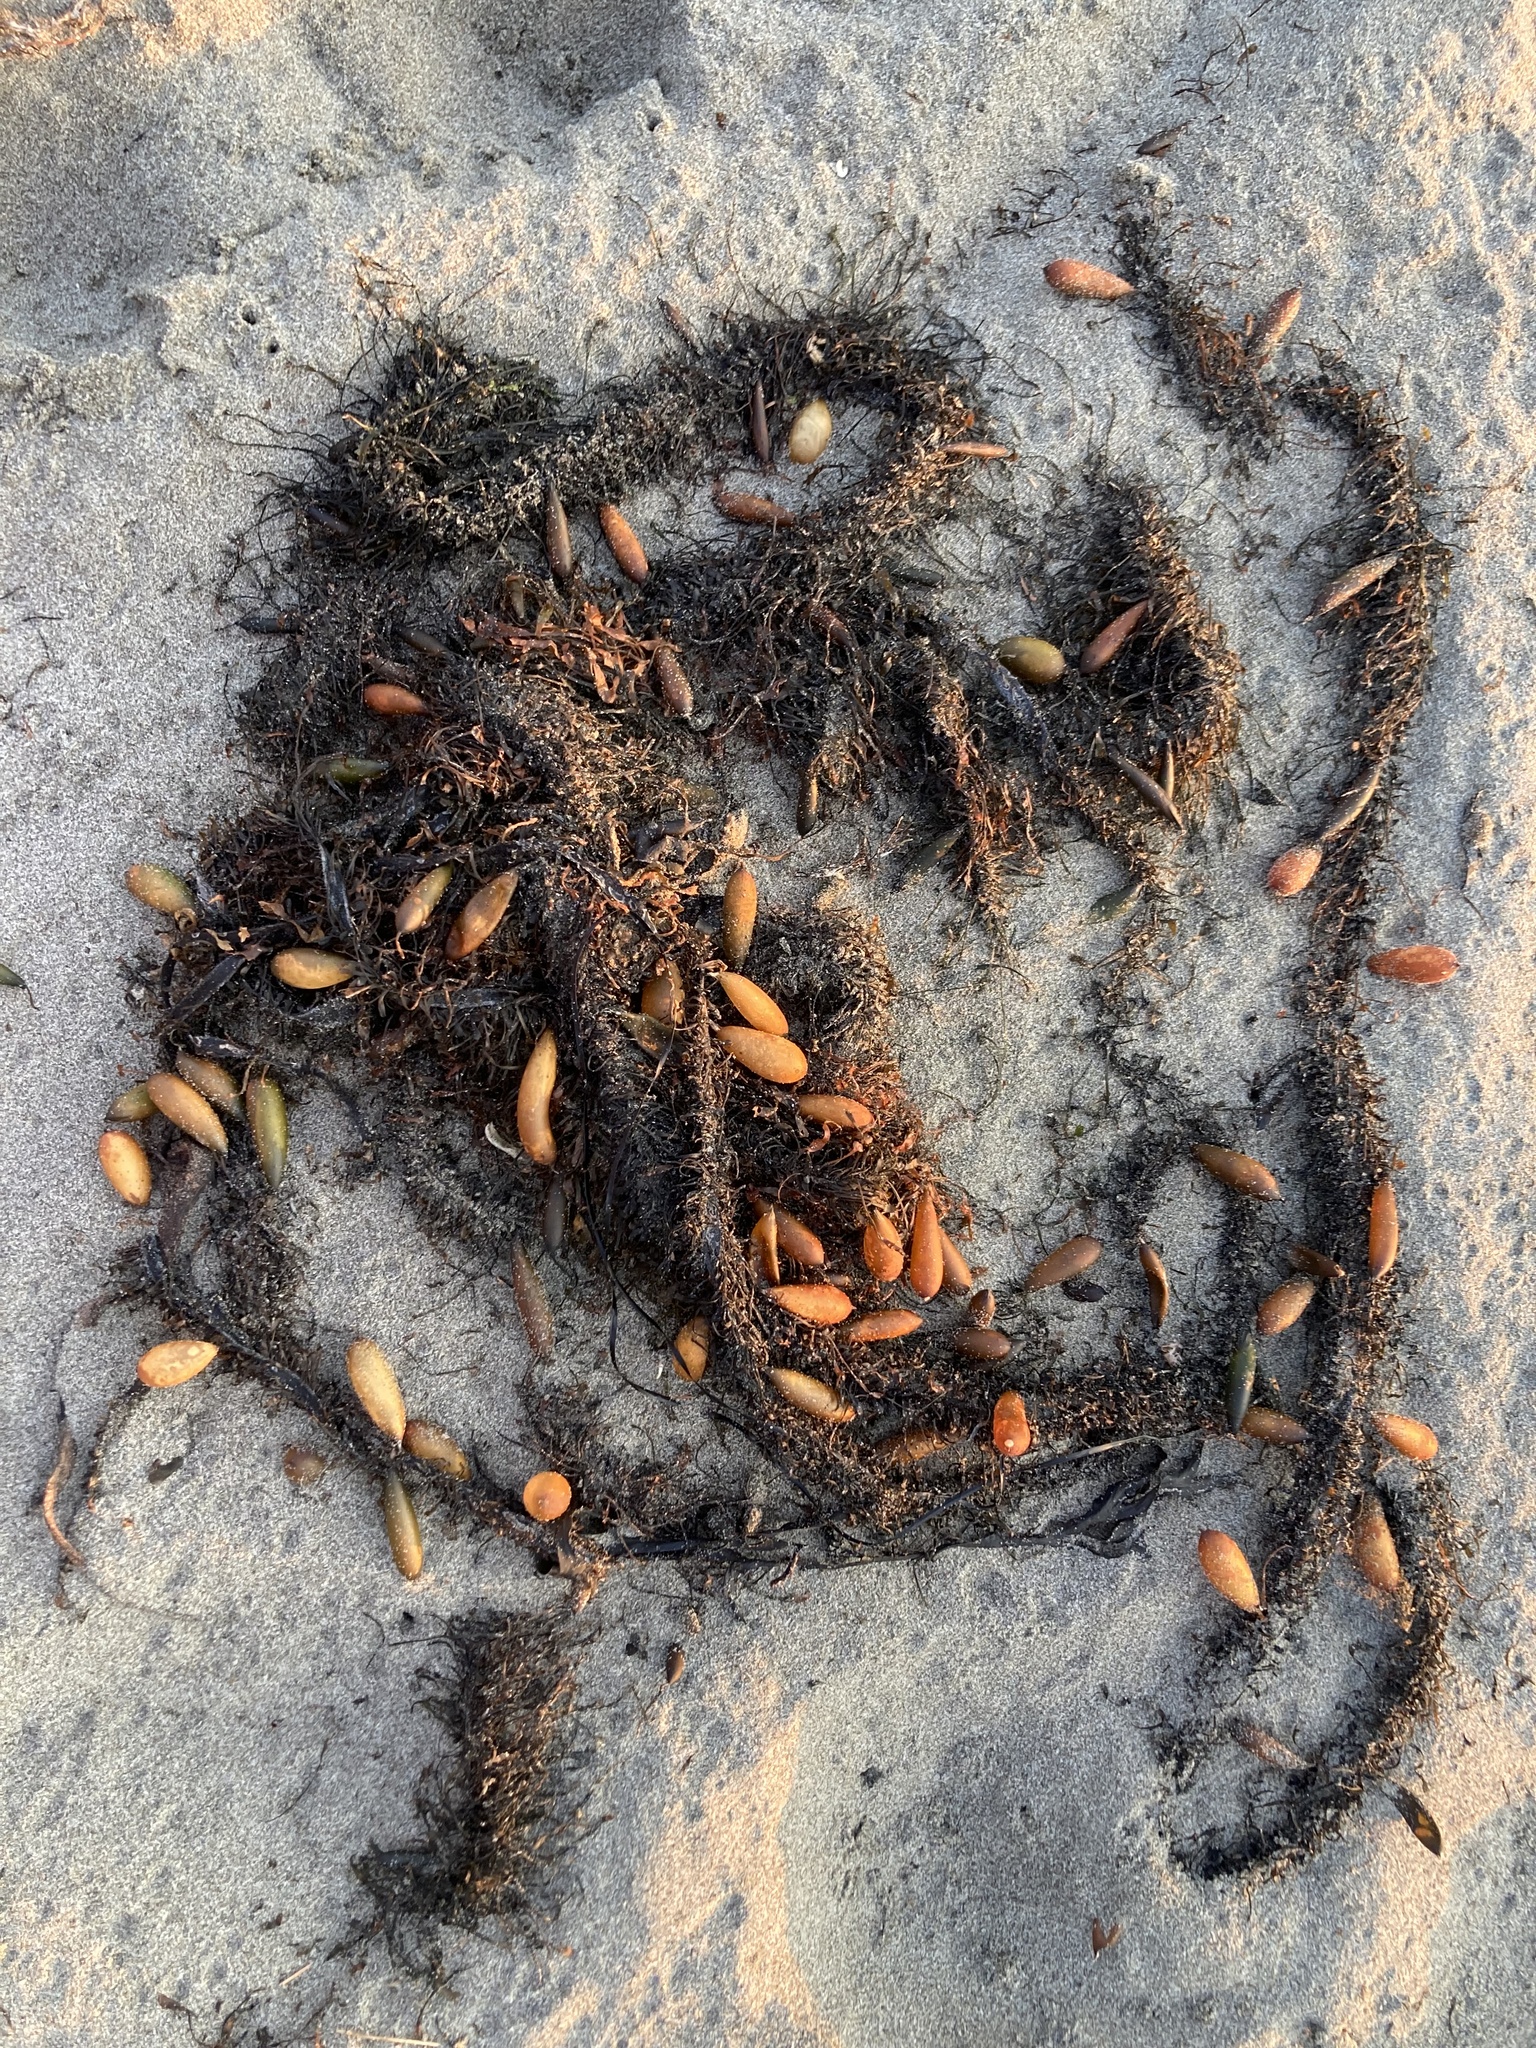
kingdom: Chromista
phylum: Ochrophyta
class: Phaeophyceae
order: Laminariales
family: Lessoniaceae
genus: Egregia
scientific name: Egregia menziesii
